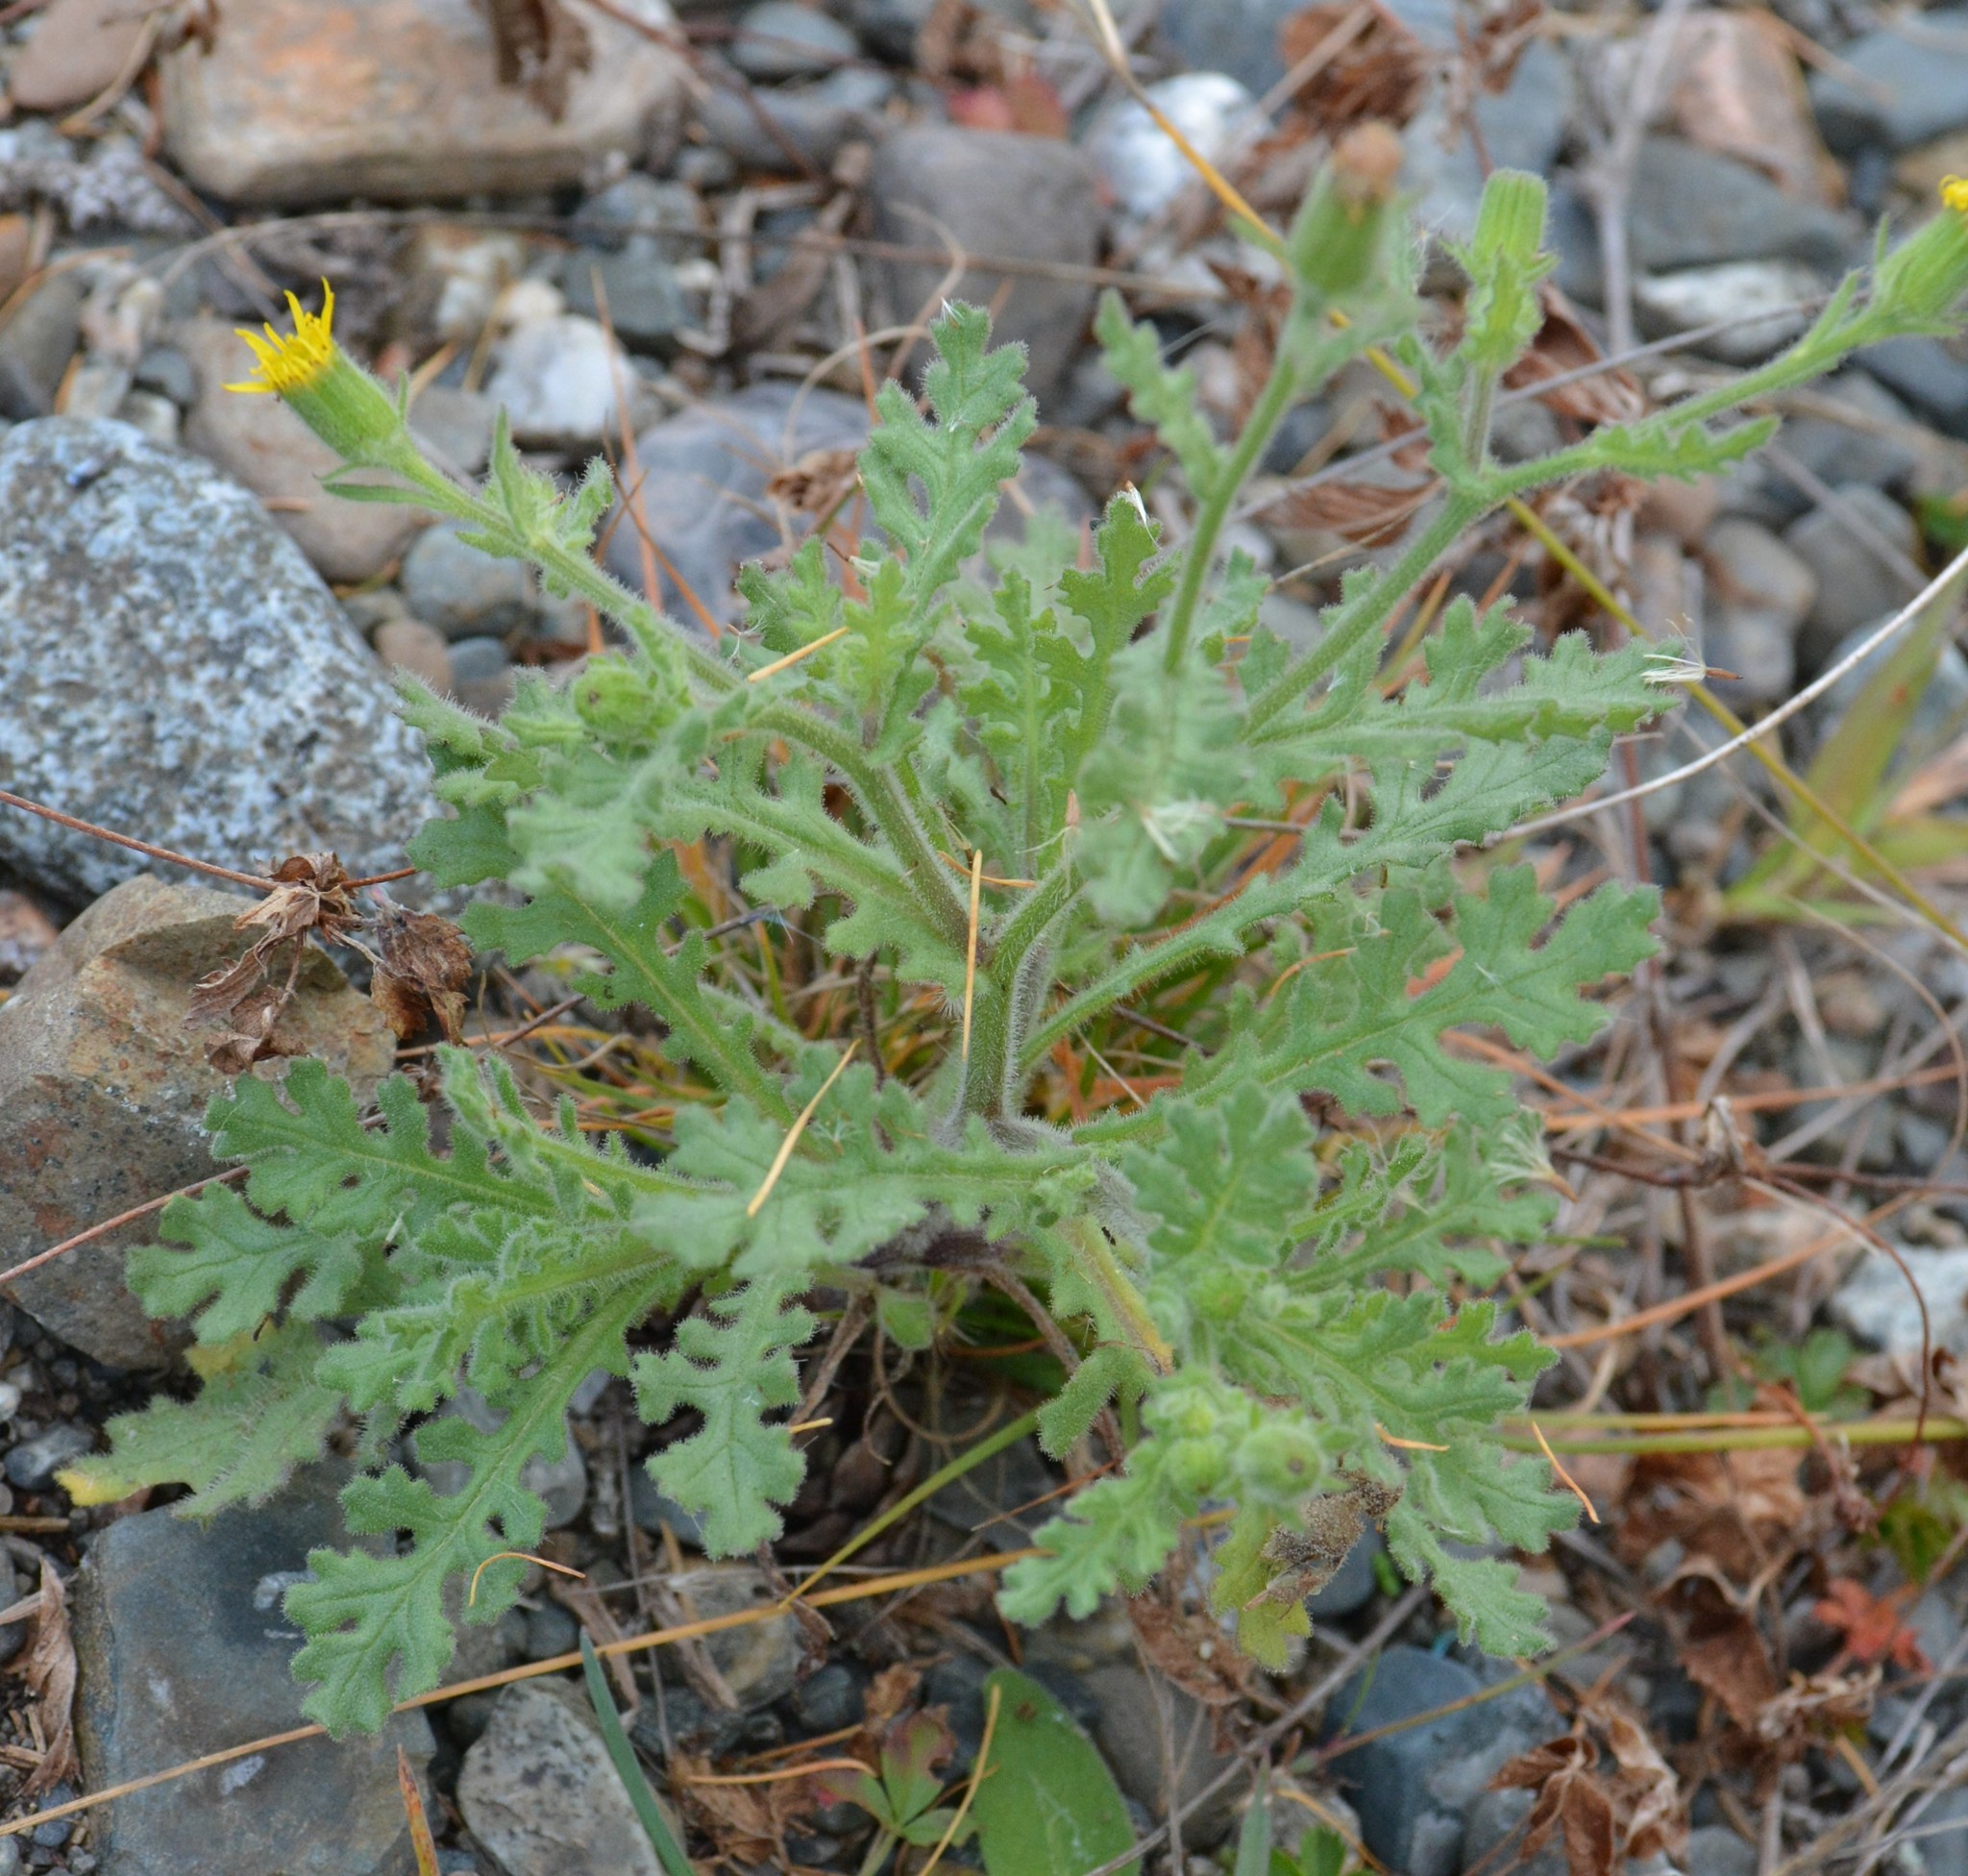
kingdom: Plantae
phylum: Tracheophyta
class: Magnoliopsida
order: Asterales
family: Asteraceae
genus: Senecio
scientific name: Senecio viscosus
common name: Sticky groundsel
